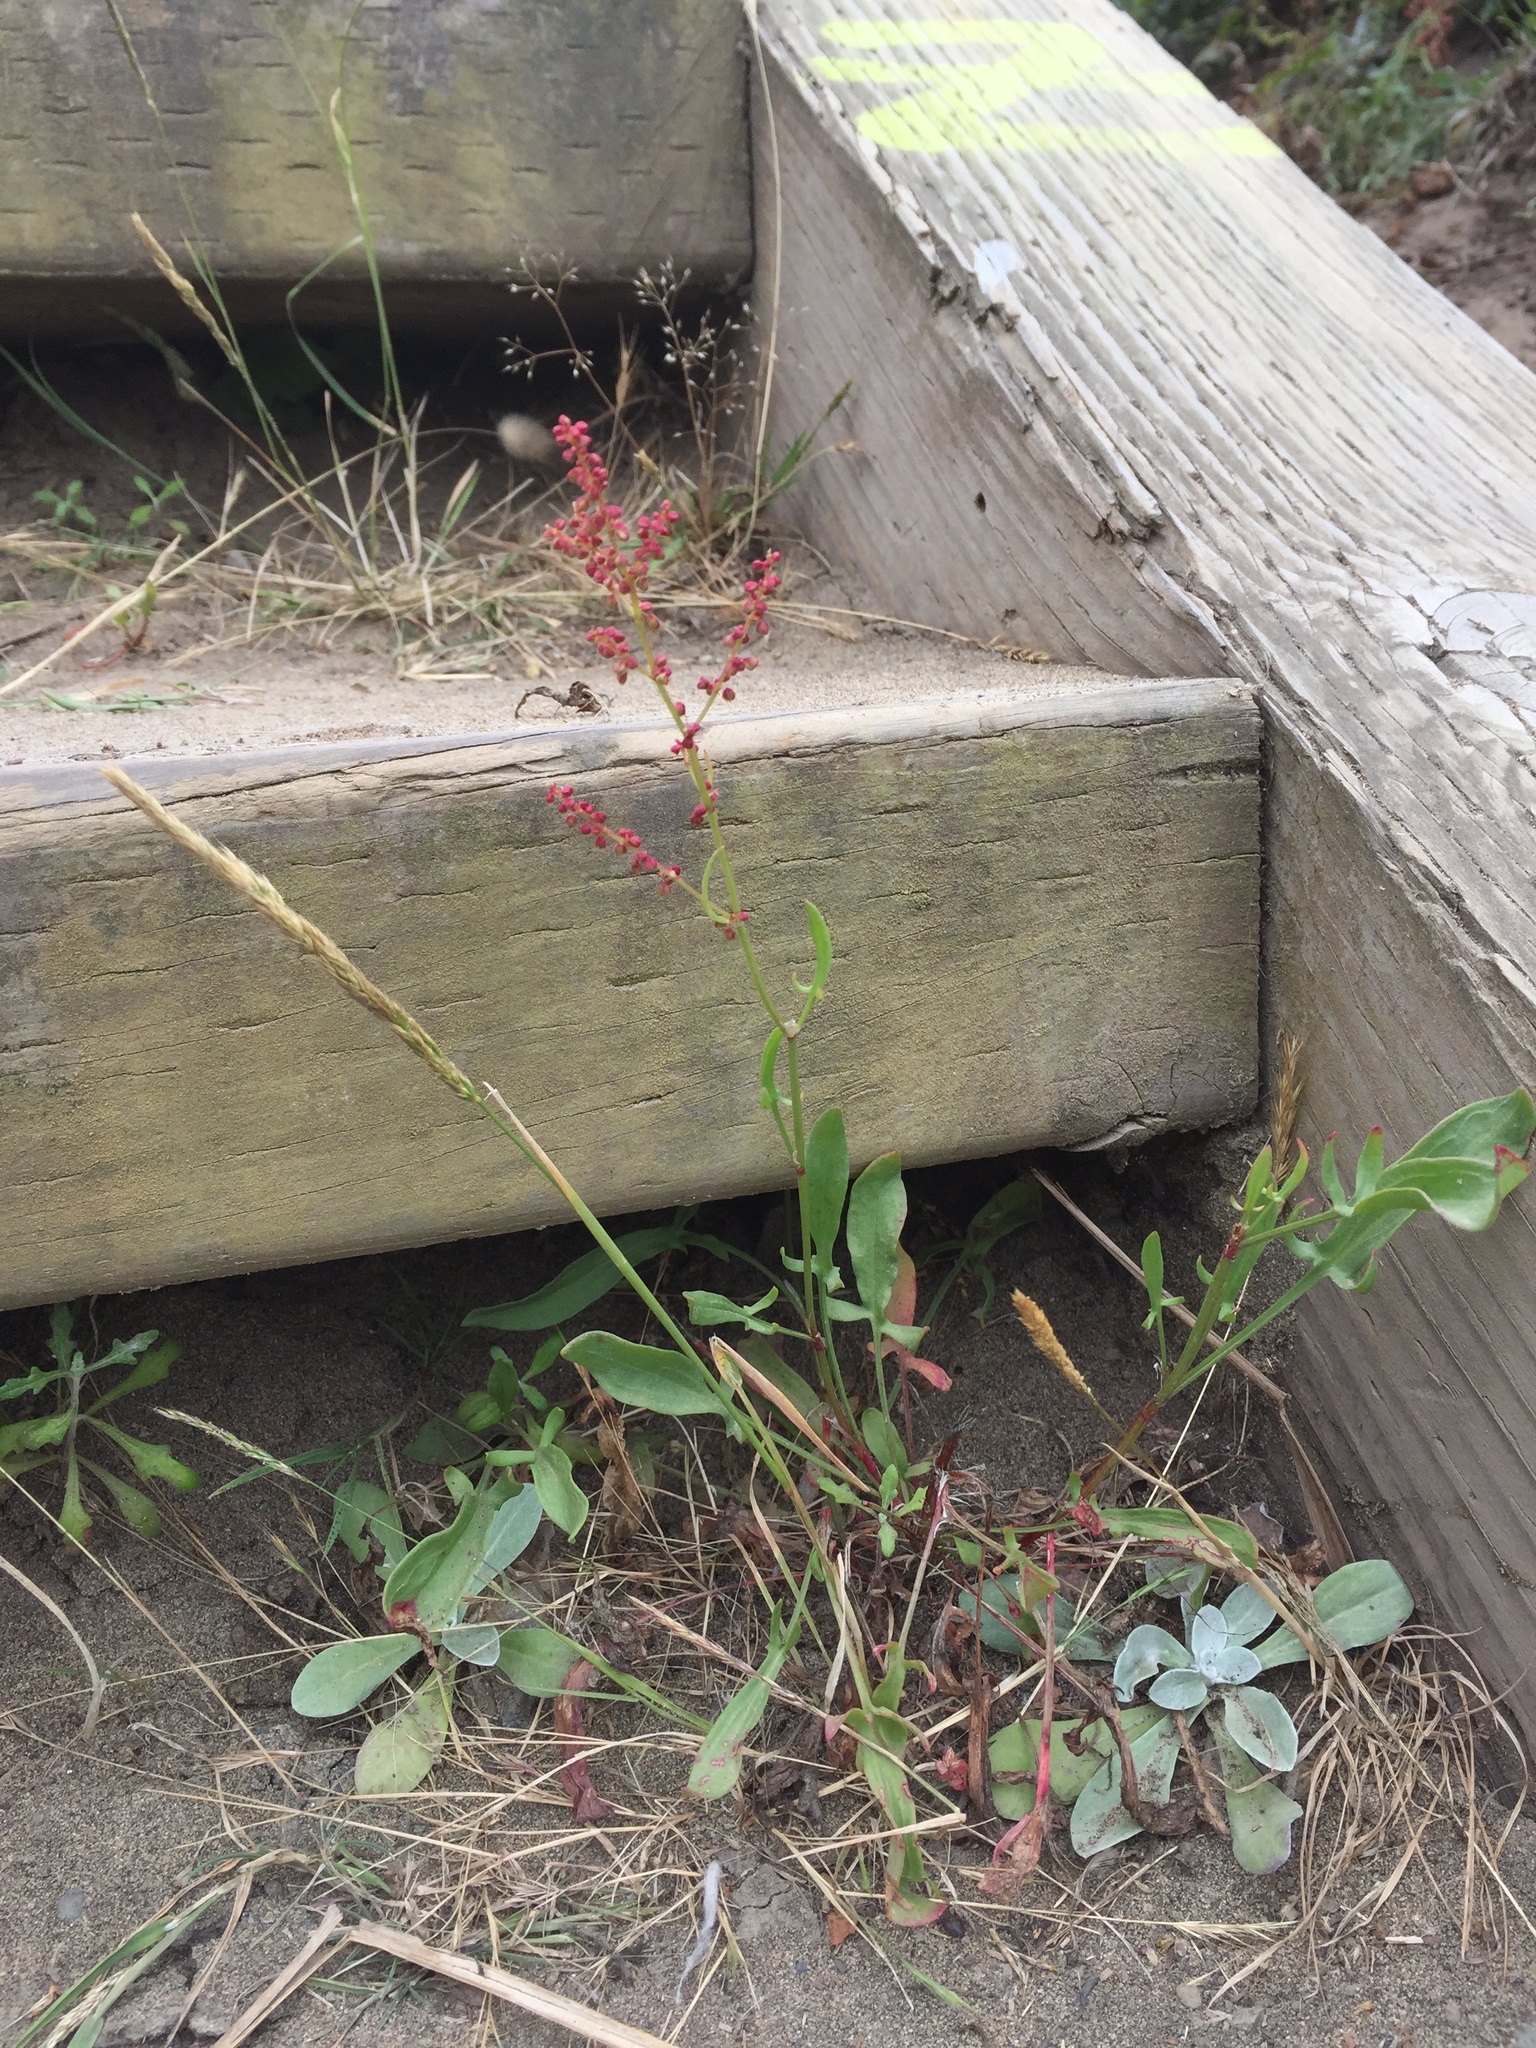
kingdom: Plantae
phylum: Tracheophyta
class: Magnoliopsida
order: Caryophyllales
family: Polygonaceae
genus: Rumex
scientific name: Rumex acetosella
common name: Common sheep sorrel
